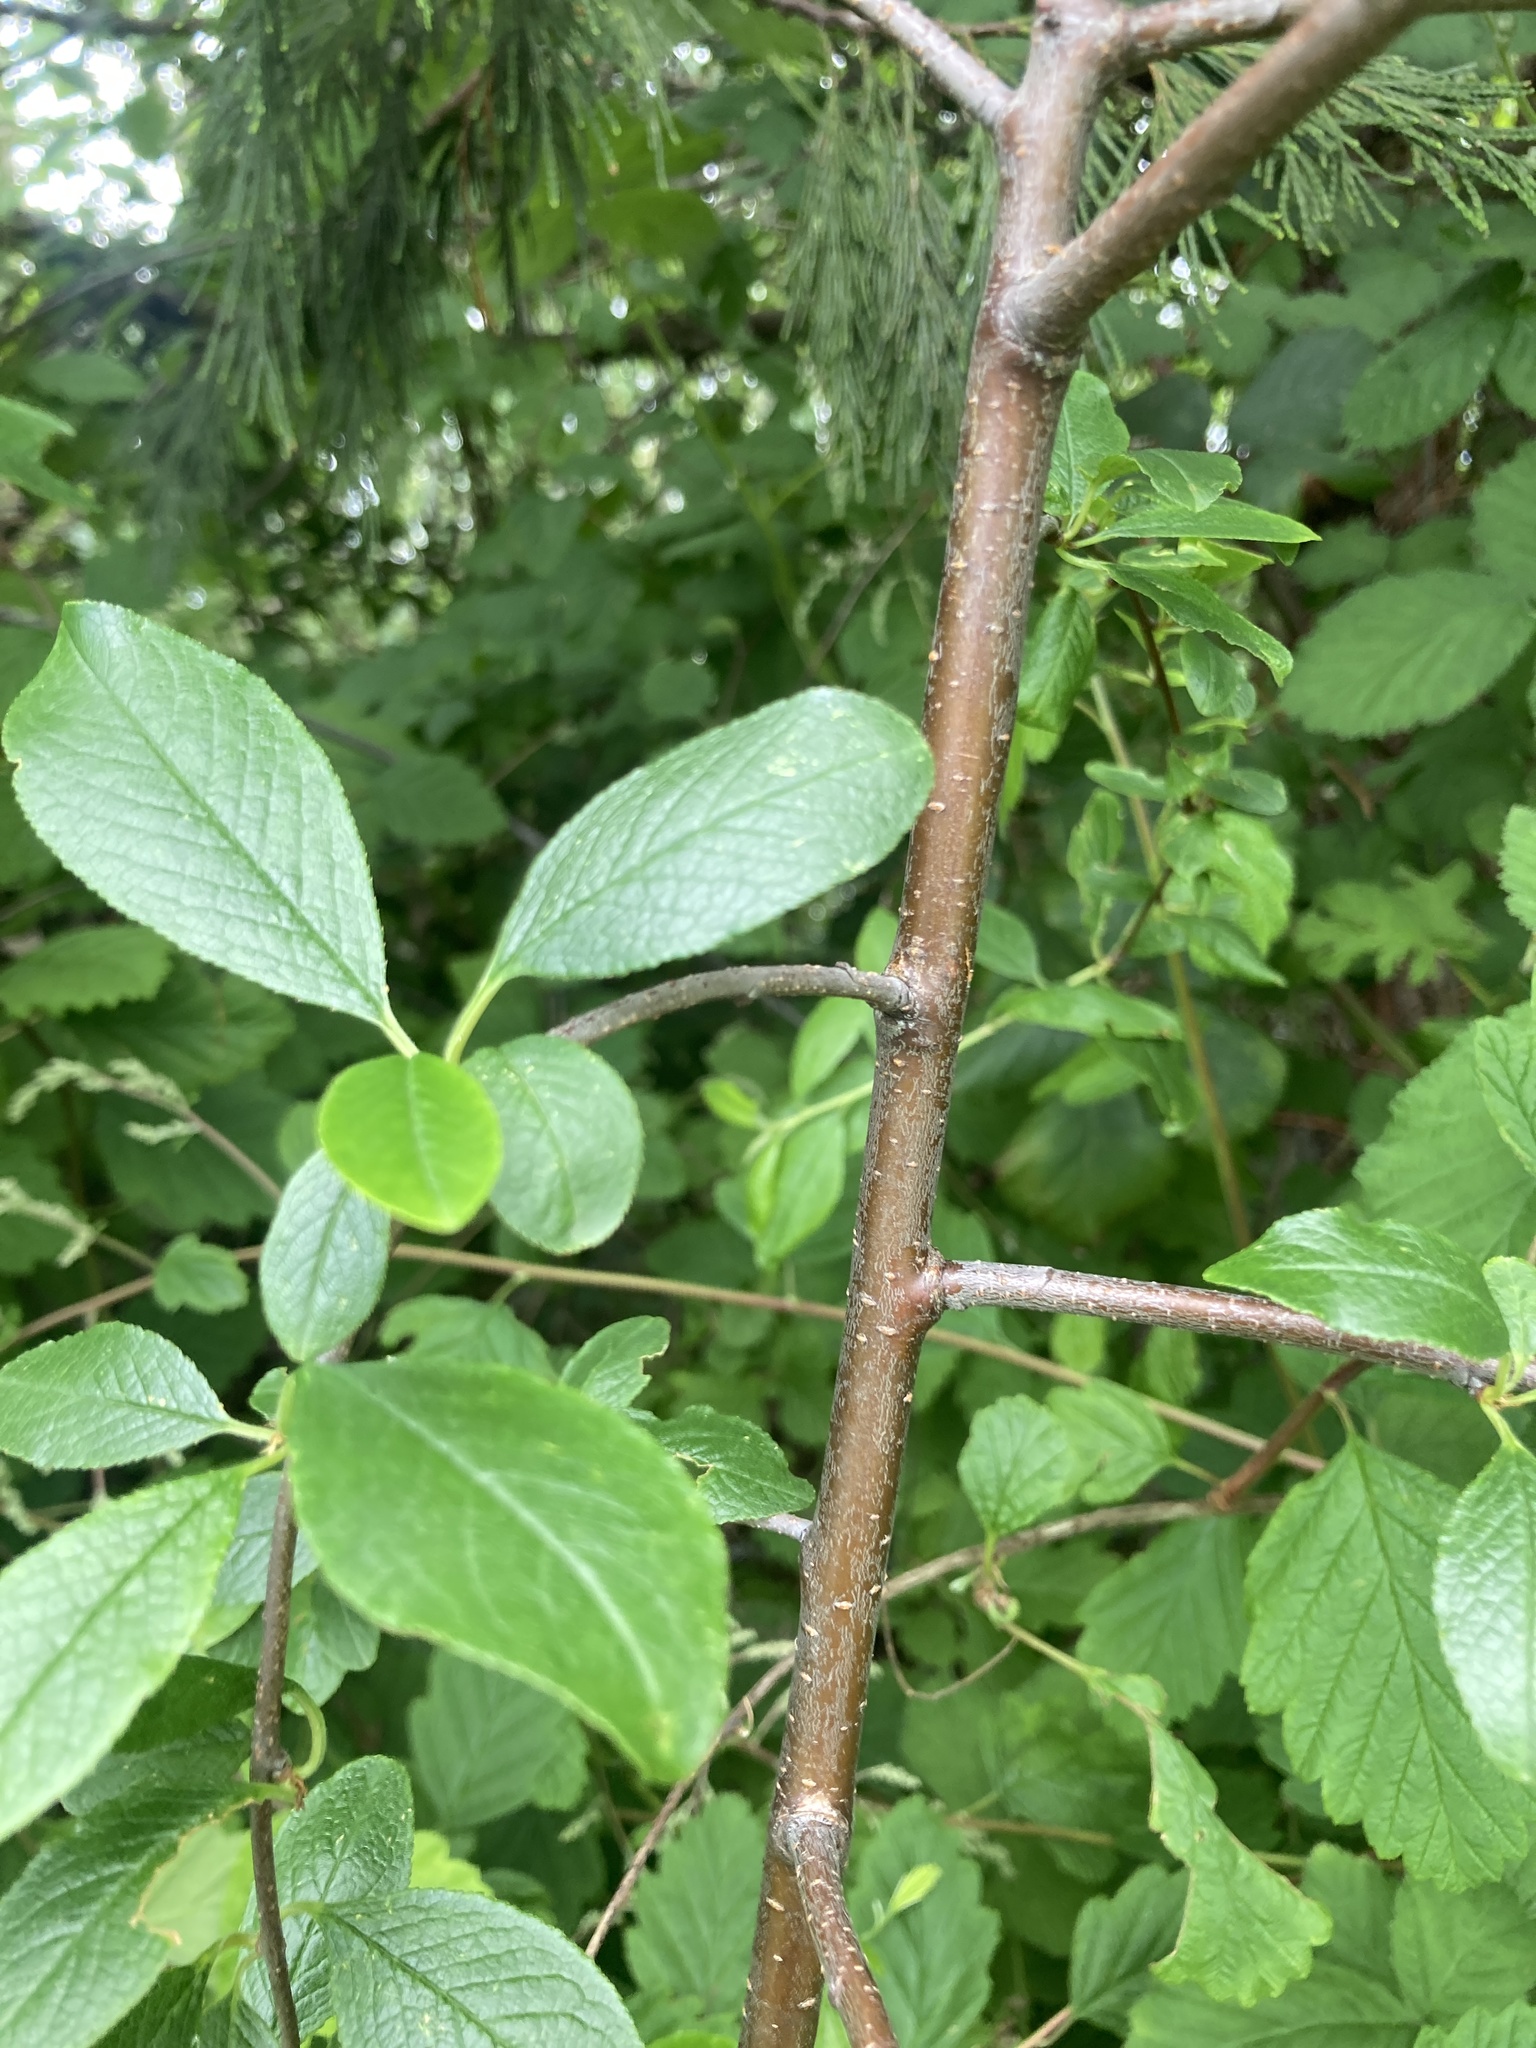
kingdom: Plantae
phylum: Tracheophyta
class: Magnoliopsida
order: Rosales
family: Rosaceae
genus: Prunus
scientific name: Prunus emarginata
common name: Bitter cherry
